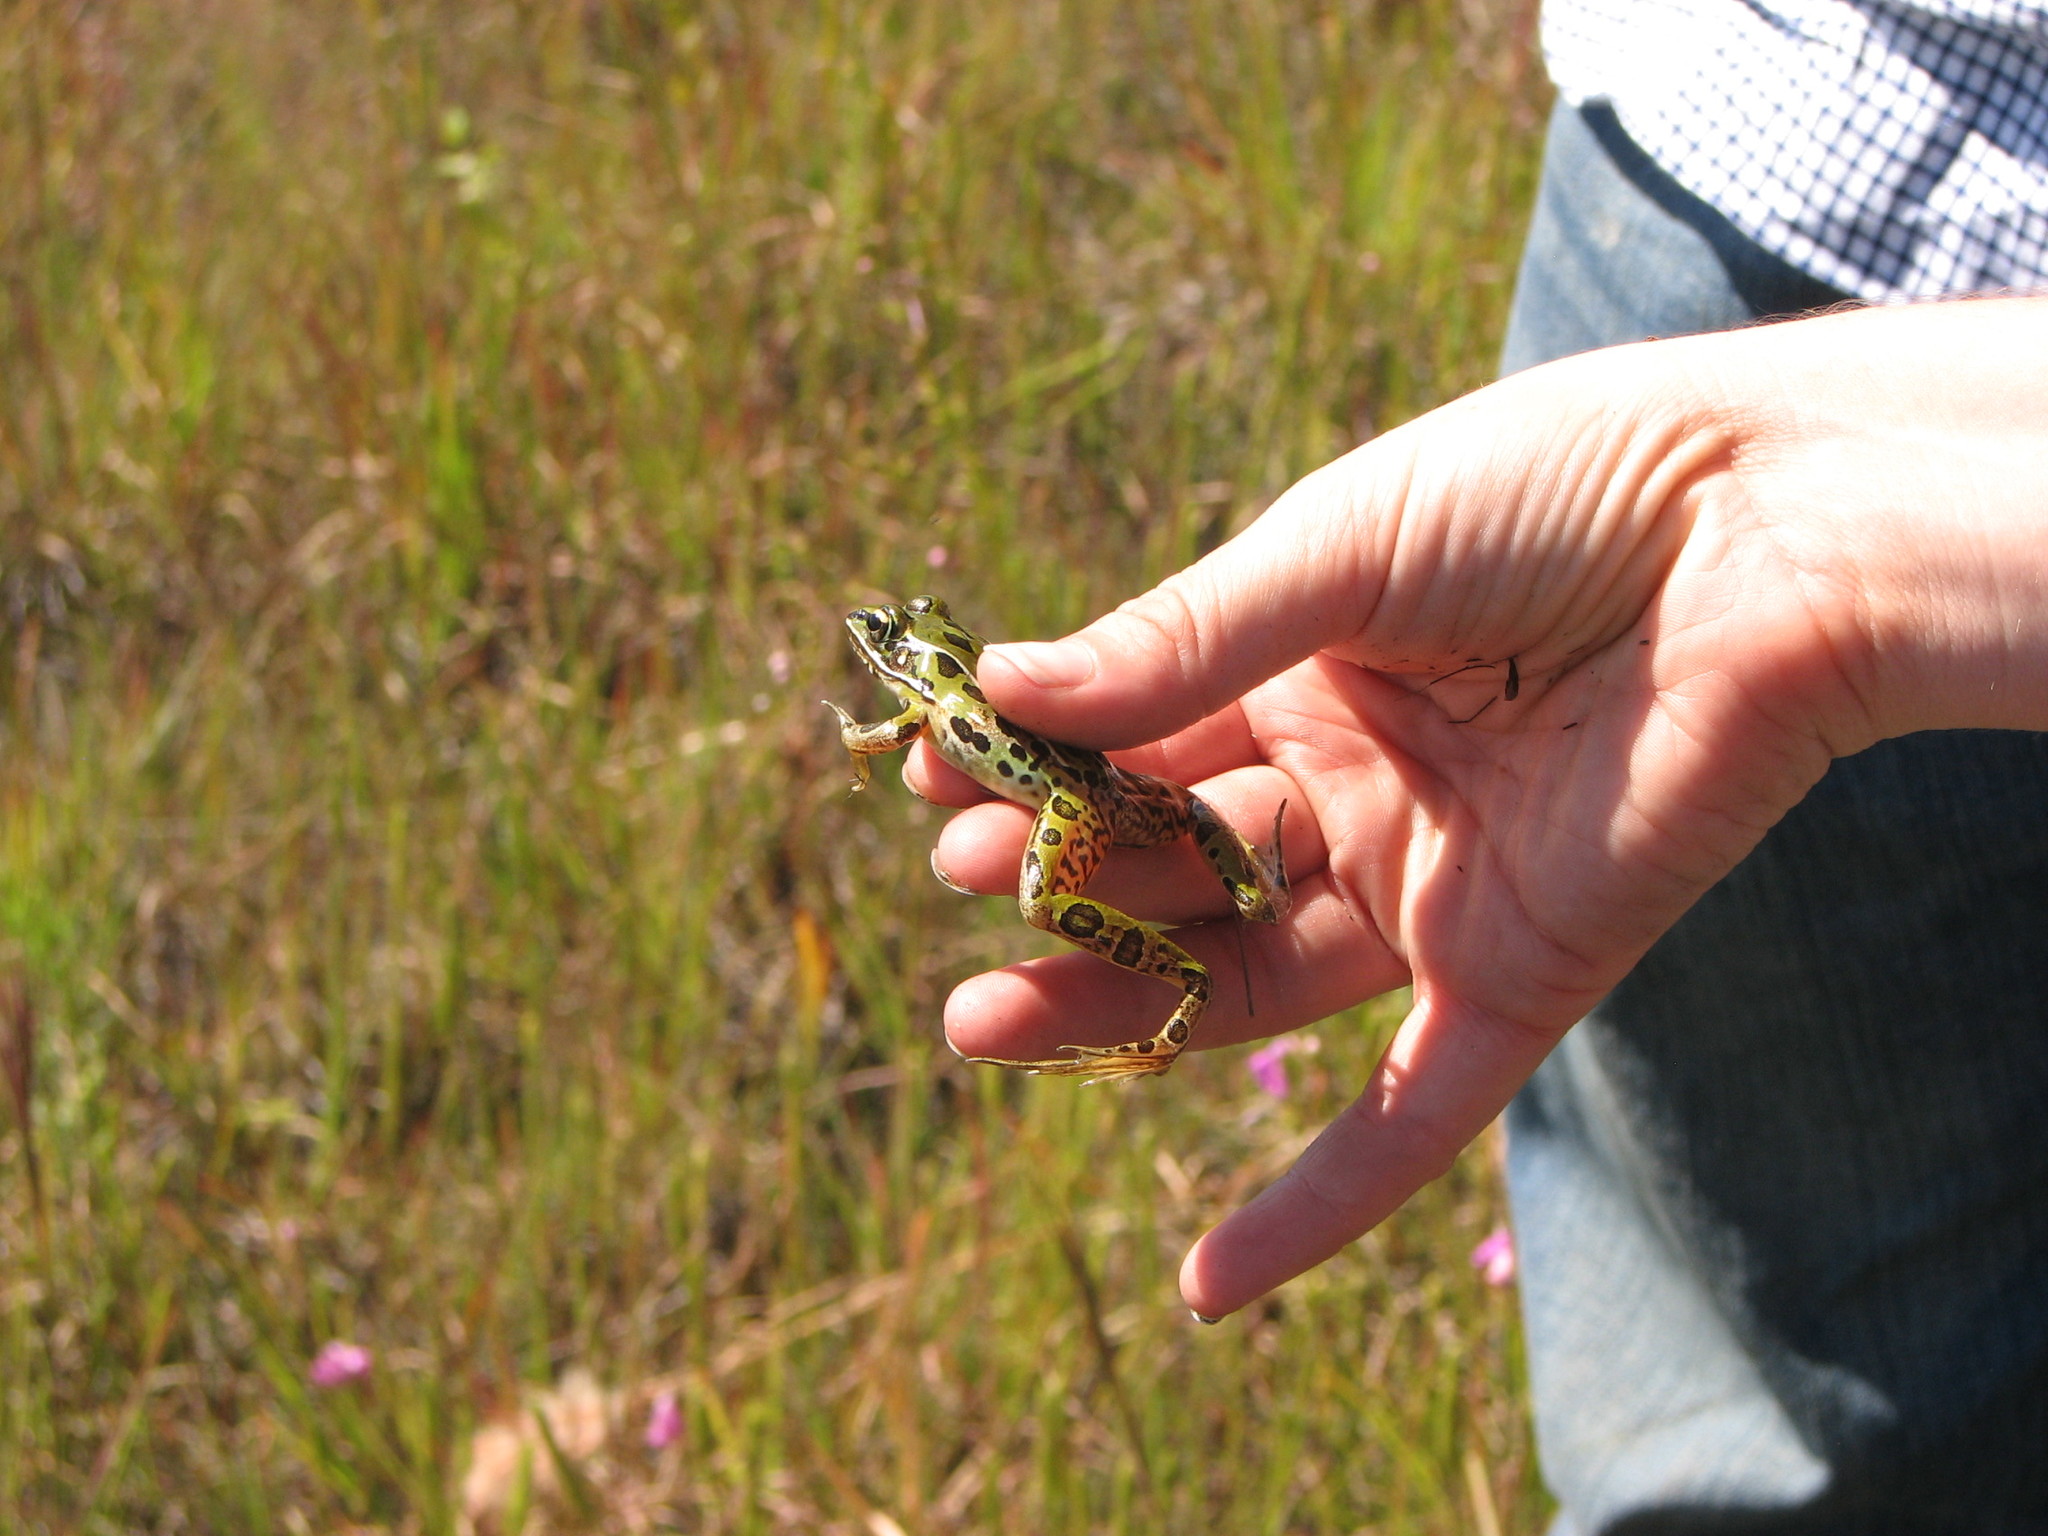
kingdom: Animalia
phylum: Chordata
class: Amphibia
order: Anura
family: Ranidae
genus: Lithobates
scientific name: Lithobates sphenocephalus
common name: Southern leopard frog
